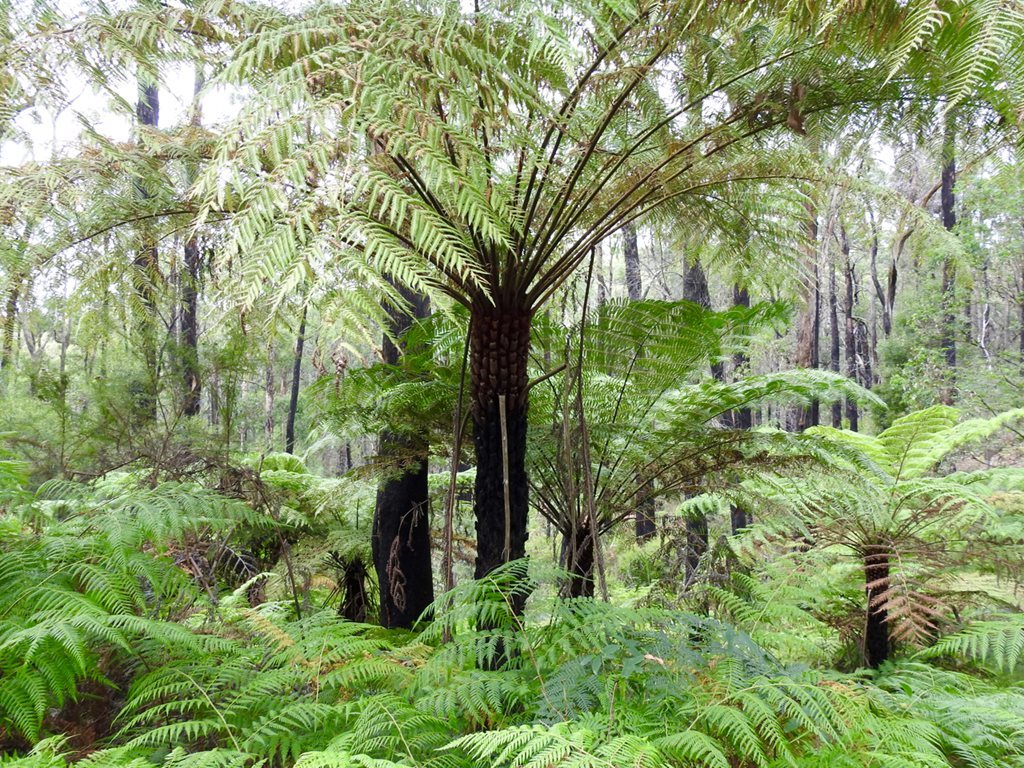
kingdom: Plantae
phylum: Tracheophyta
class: Polypodiopsida
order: Cyatheales
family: Cyatheaceae
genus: Alsophila
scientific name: Alsophila australis
